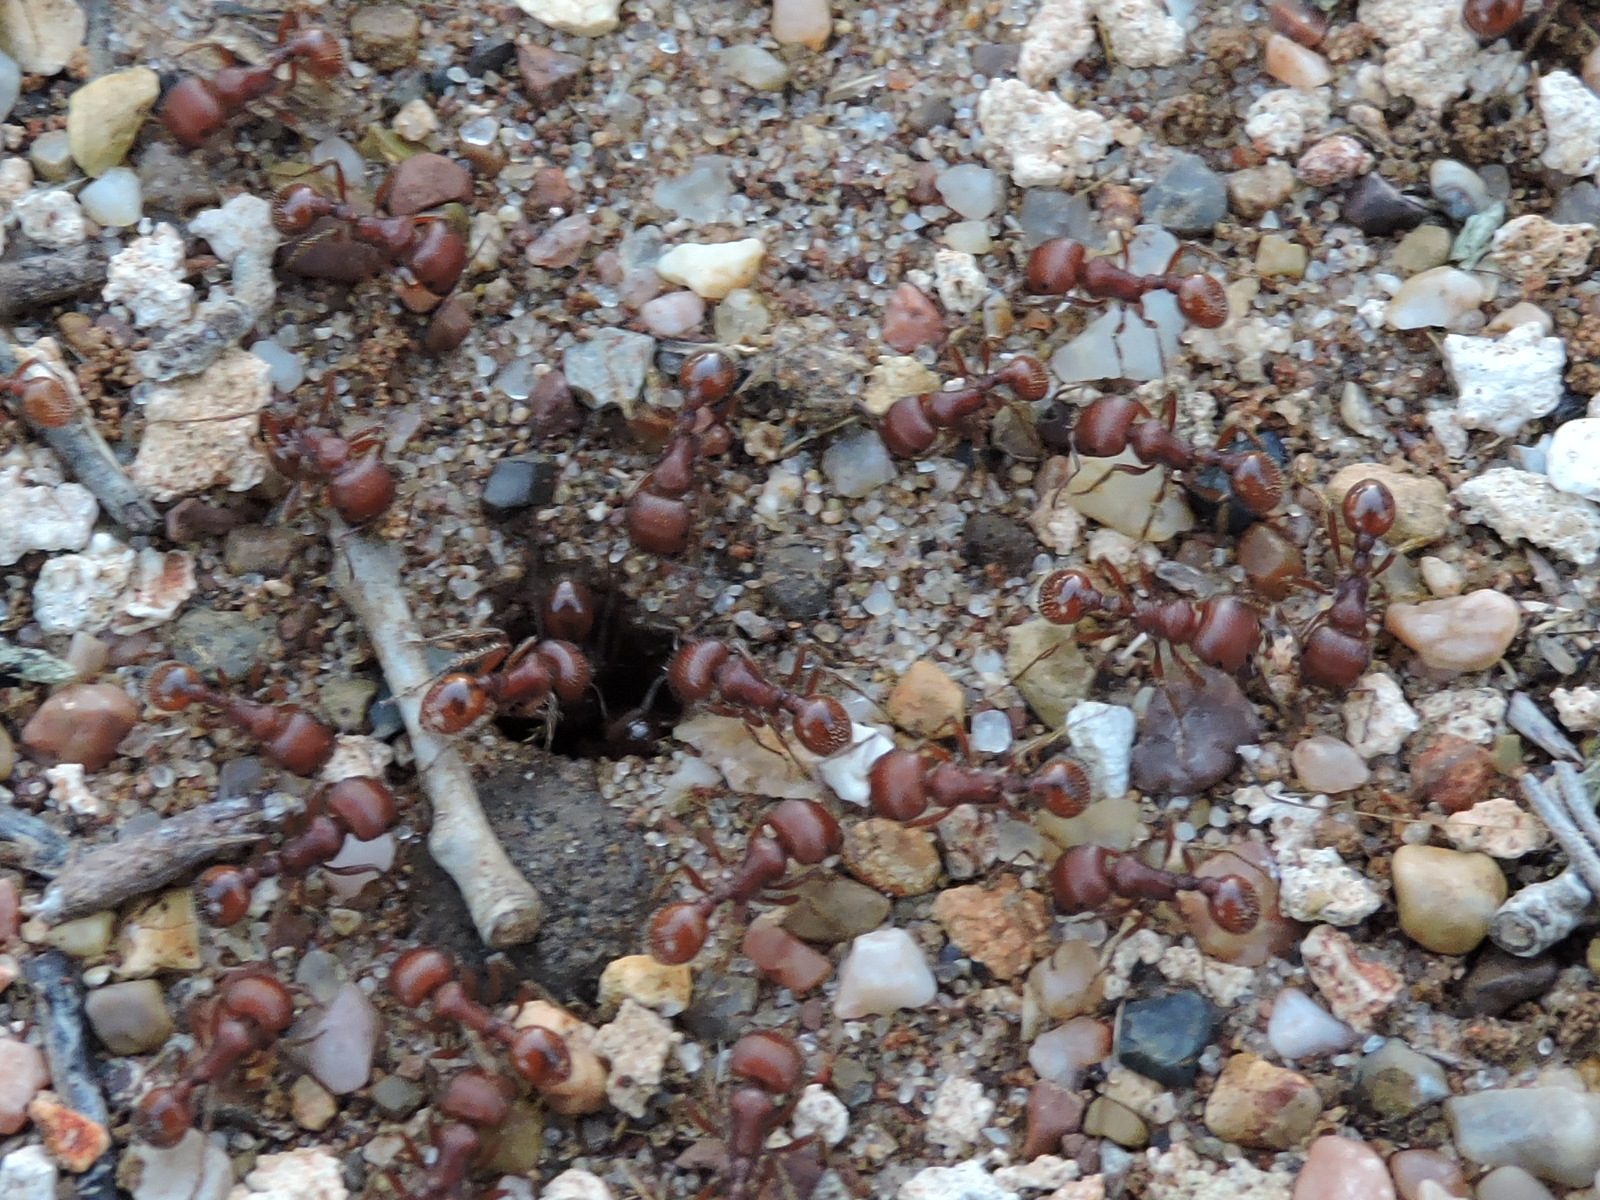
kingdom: Animalia
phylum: Arthropoda
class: Insecta
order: Hymenoptera
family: Formicidae
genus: Pogonomyrmex
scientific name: Pogonomyrmex barbatus
